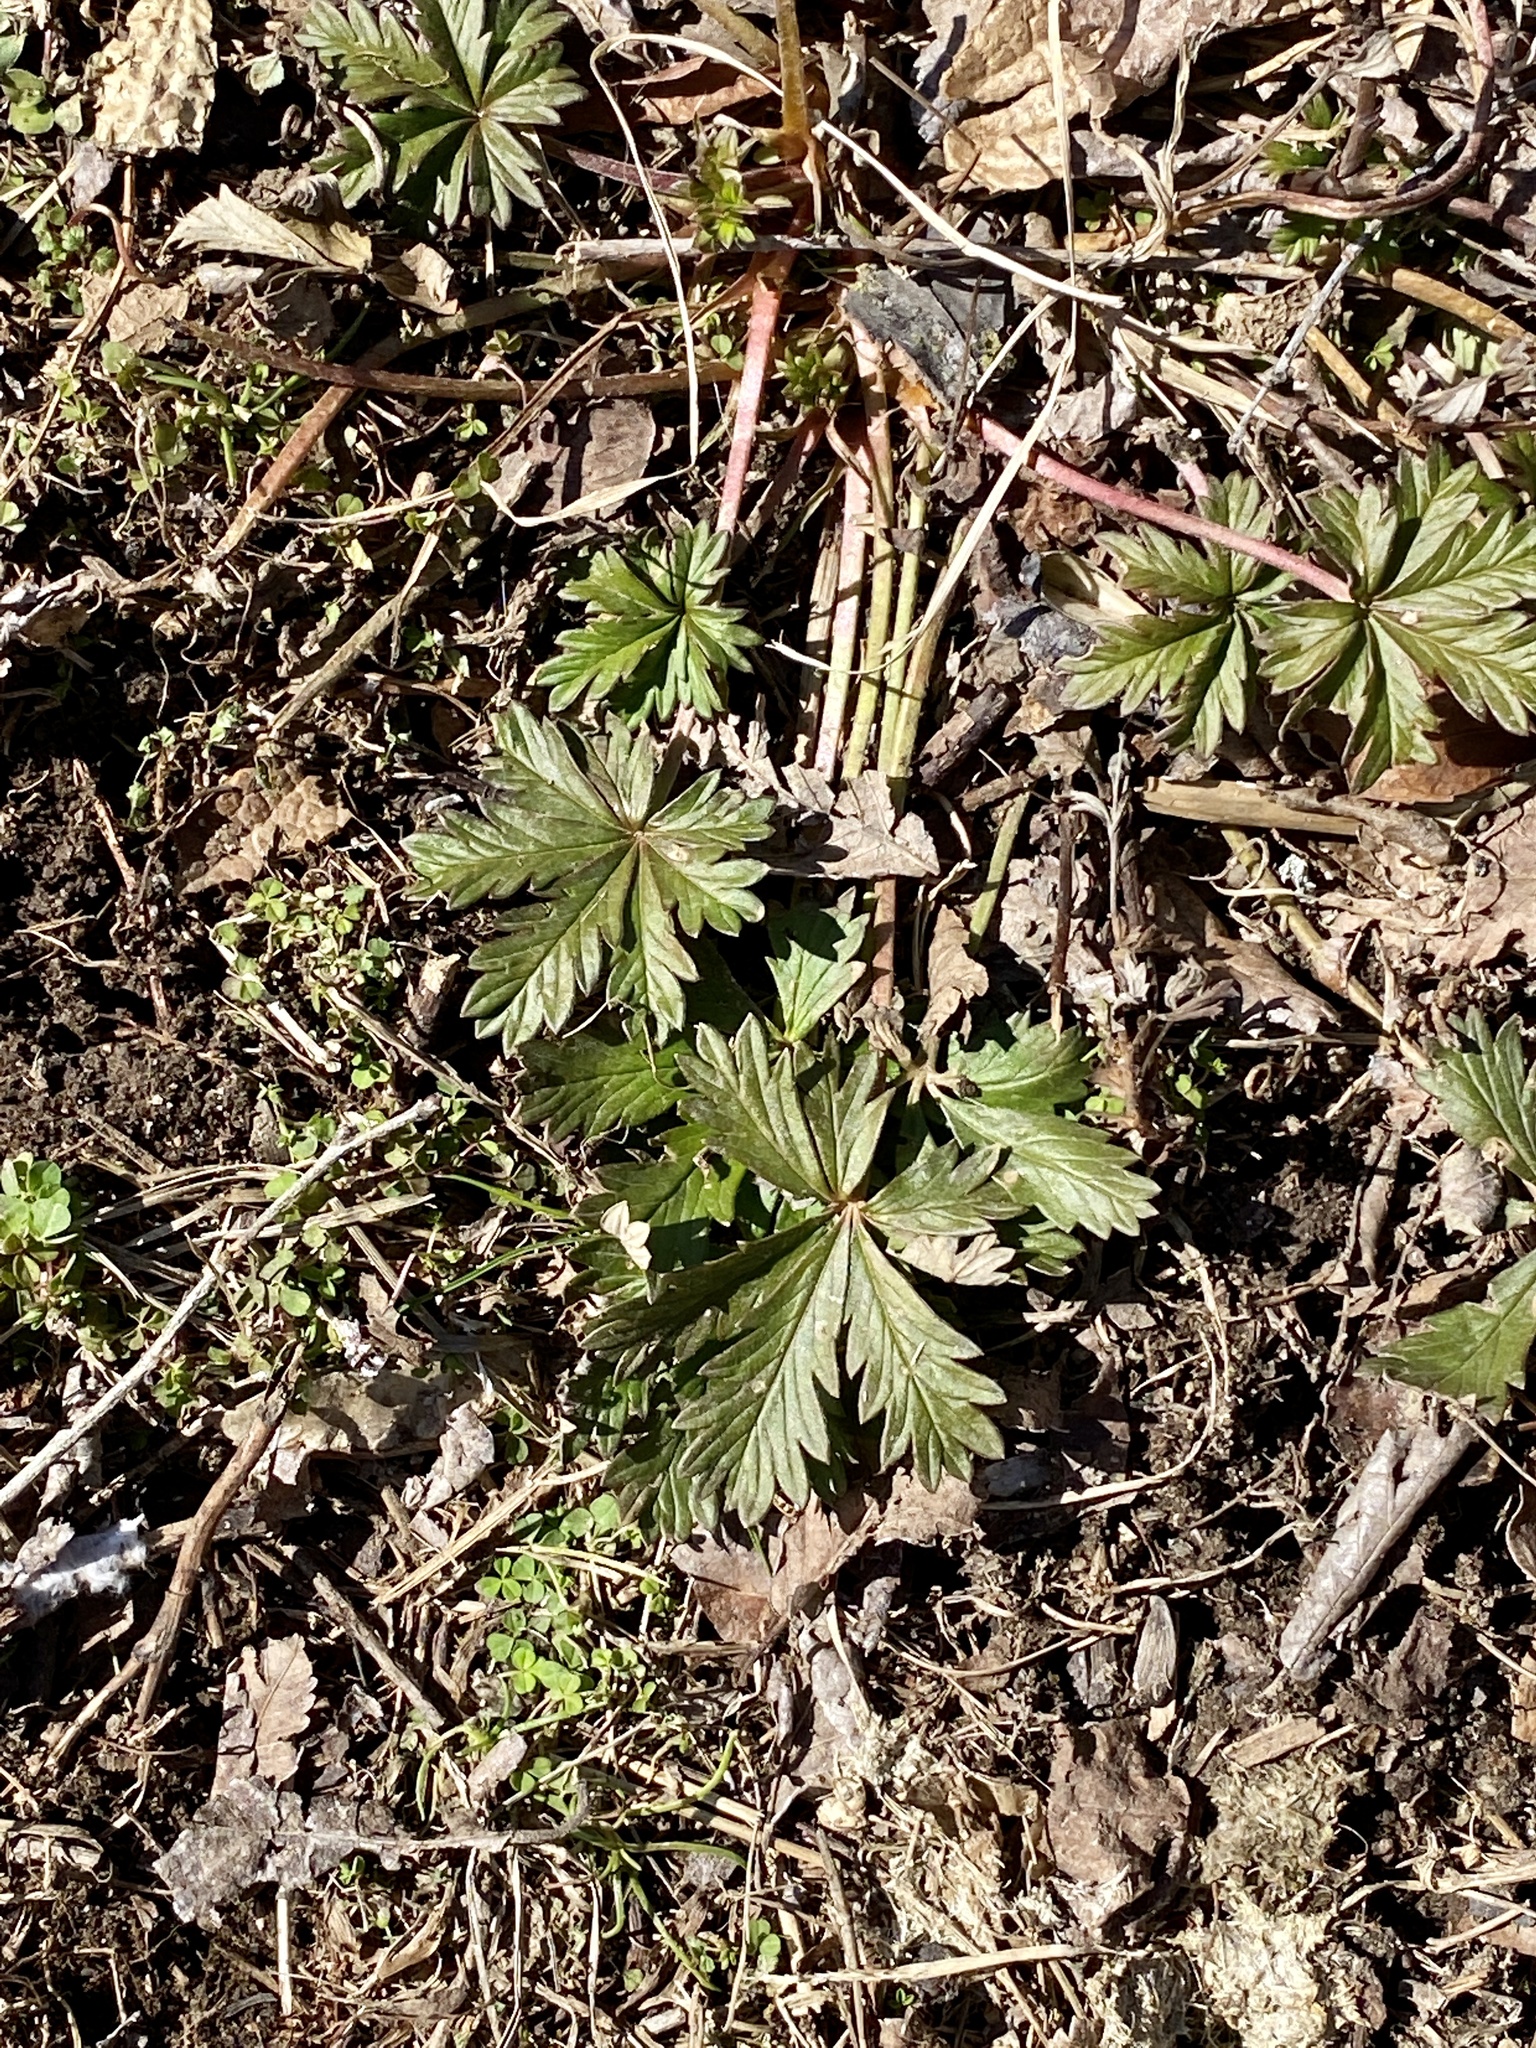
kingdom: Plantae
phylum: Tracheophyta
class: Magnoliopsida
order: Rosales
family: Rosaceae
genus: Potentilla
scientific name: Potentilla argentea
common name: Hoary cinquefoil
